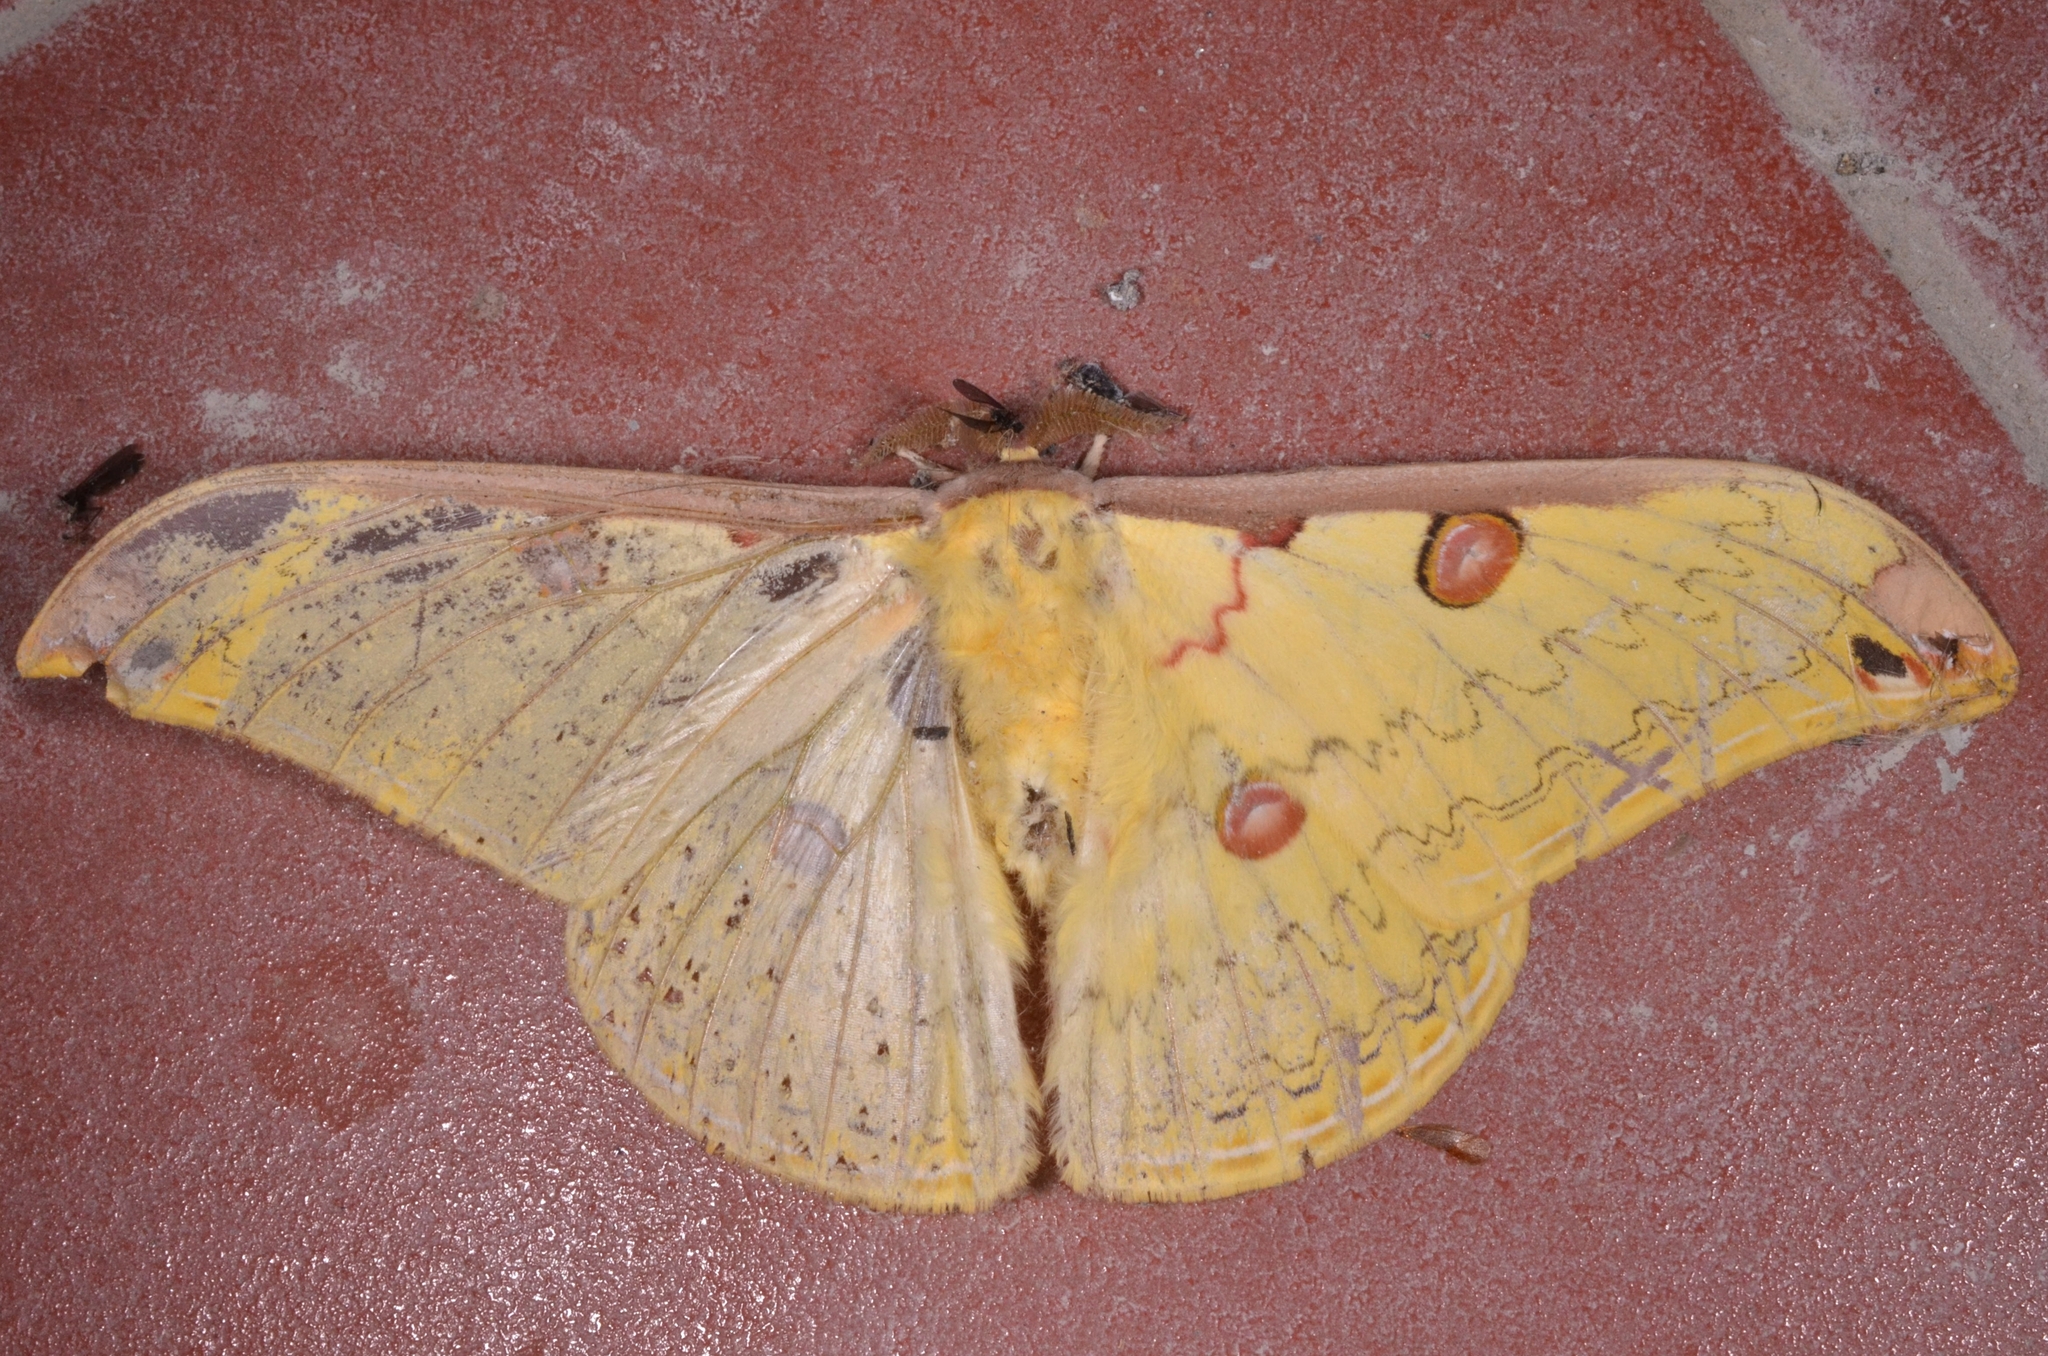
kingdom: Animalia
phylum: Arthropoda
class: Insecta
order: Lepidoptera
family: Saturniidae
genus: Loepa
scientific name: Loepa miranda
